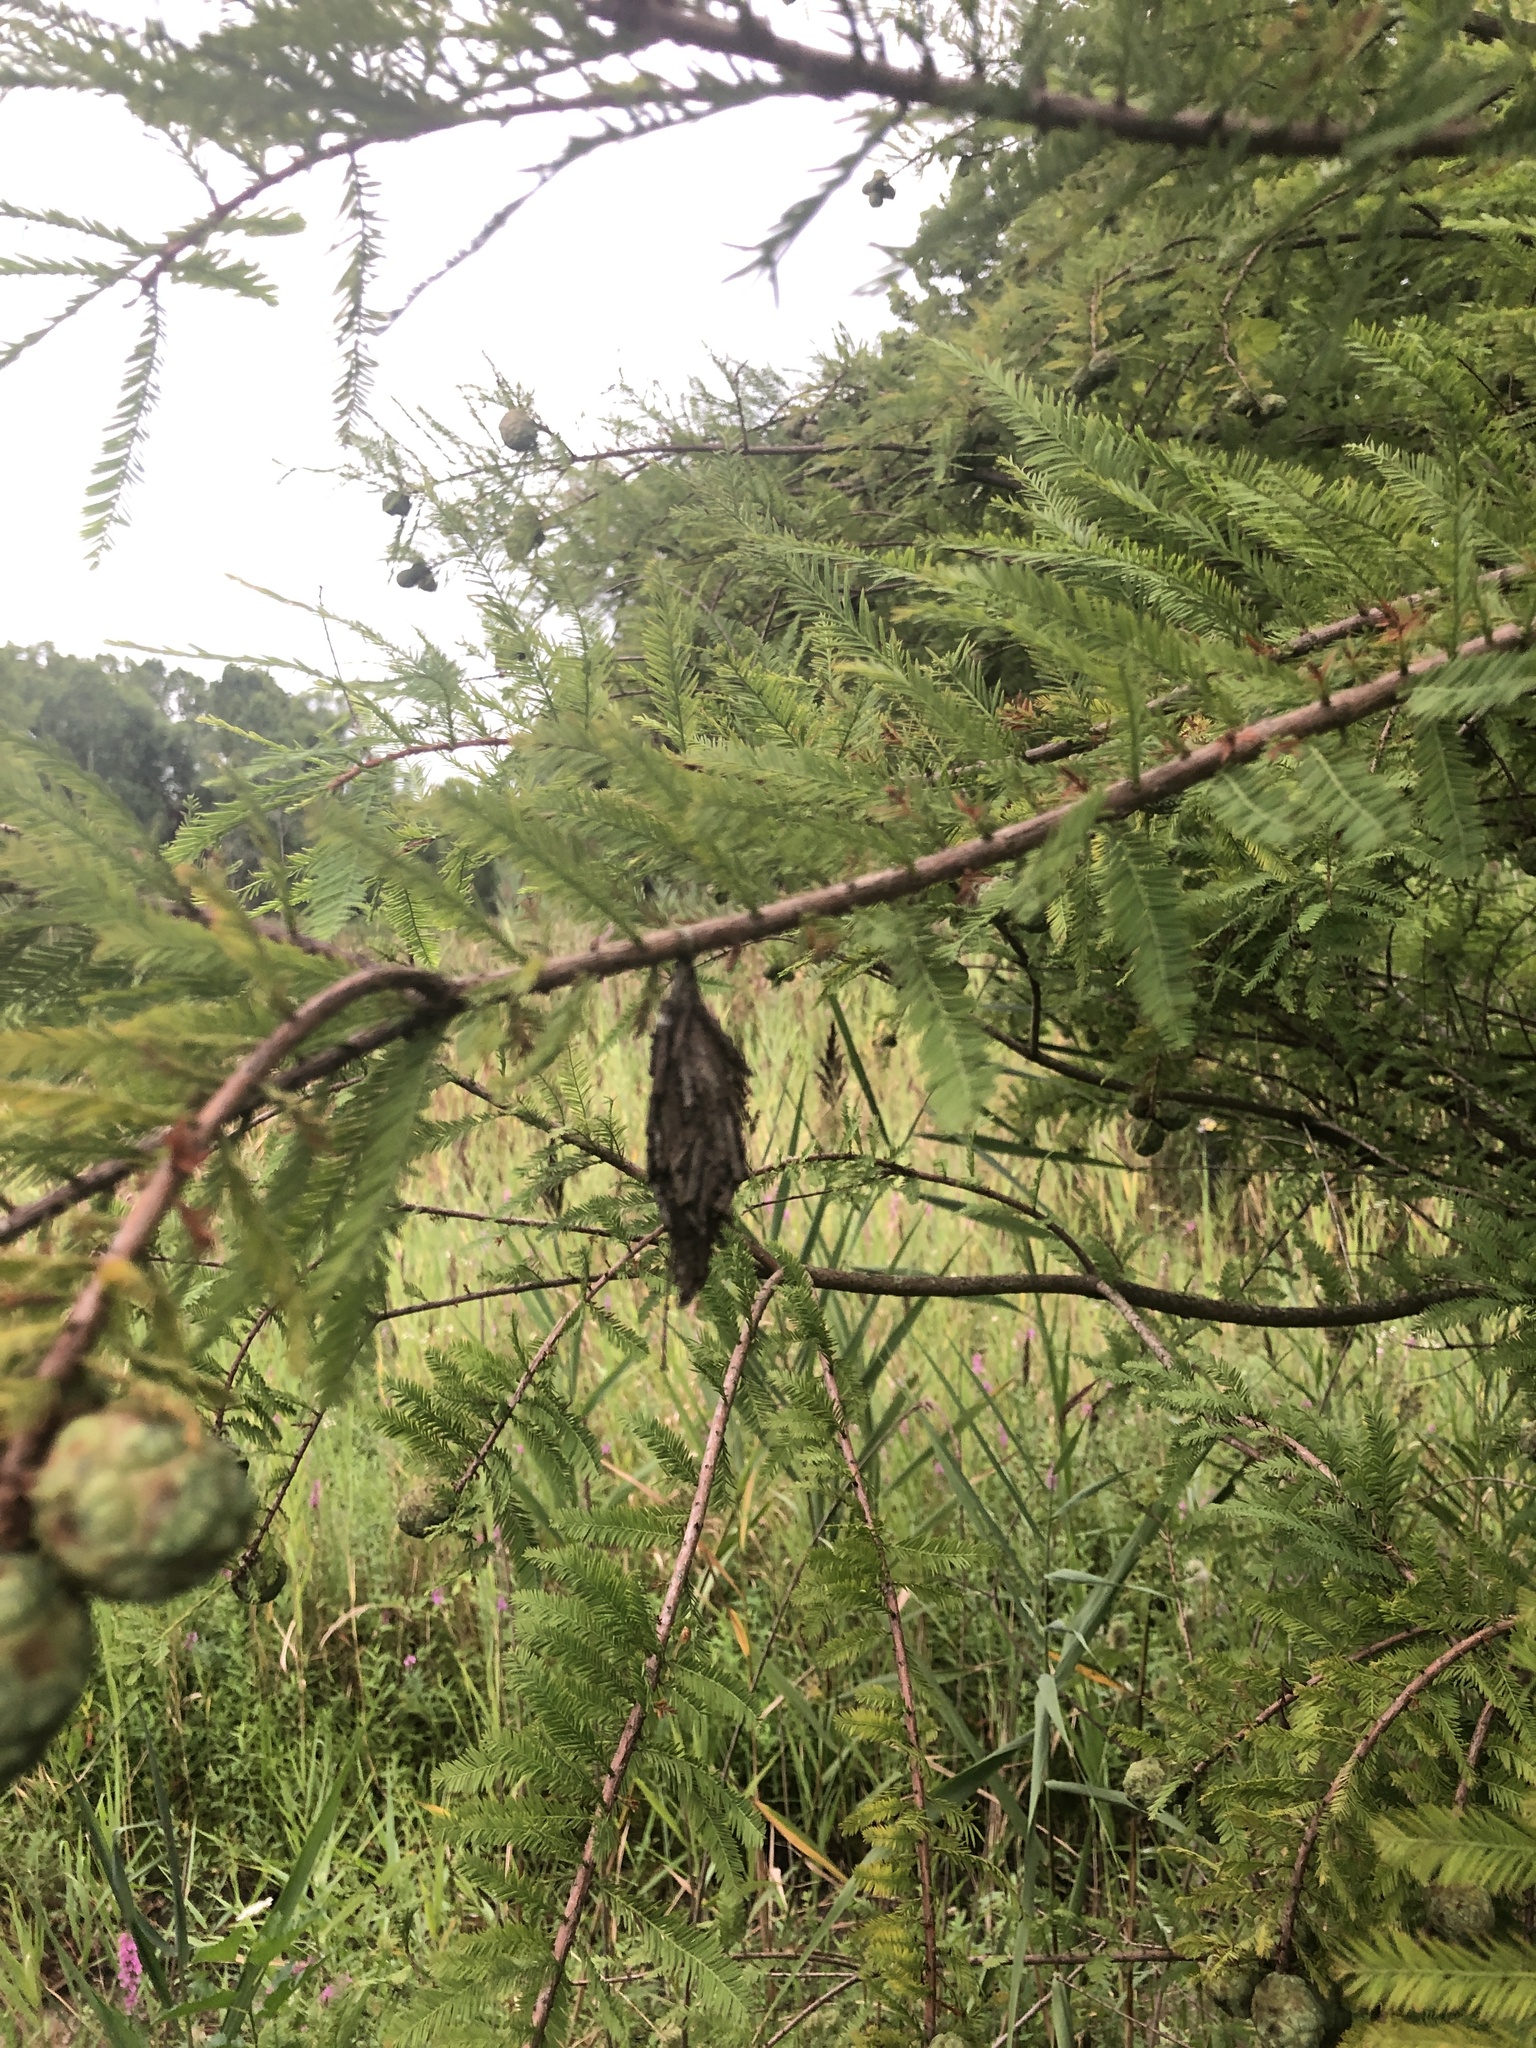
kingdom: Animalia
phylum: Arthropoda
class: Insecta
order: Lepidoptera
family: Psychidae
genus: Thyridopteryx
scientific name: Thyridopteryx ephemeraeformis
